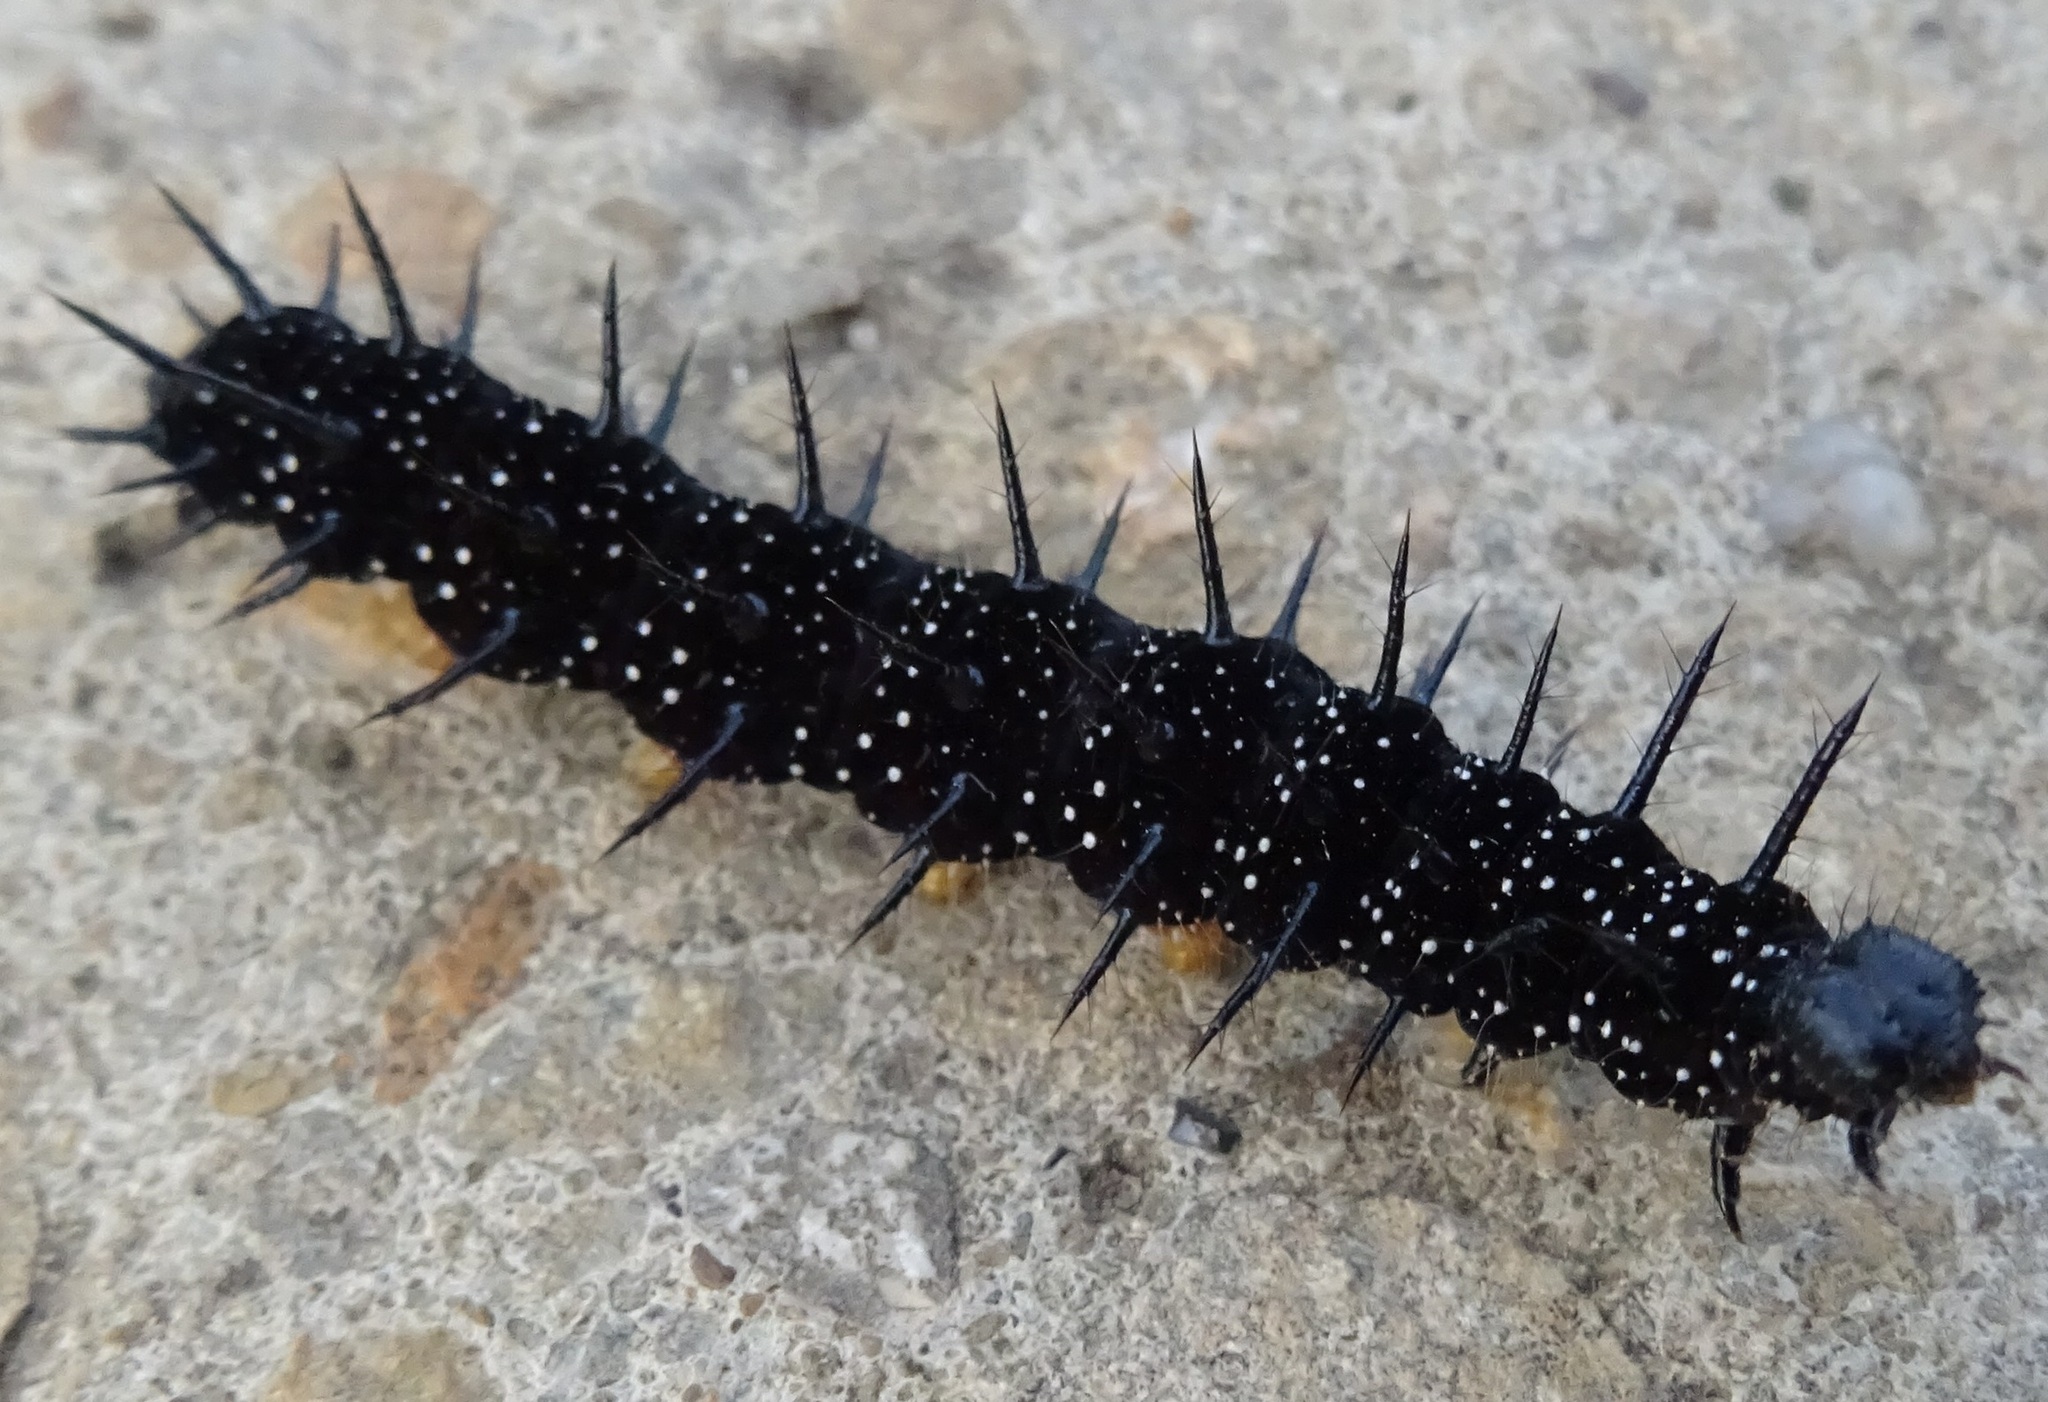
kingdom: Animalia
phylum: Arthropoda
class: Insecta
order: Lepidoptera
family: Nymphalidae
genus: Aglais
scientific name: Aglais io
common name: Peacock
